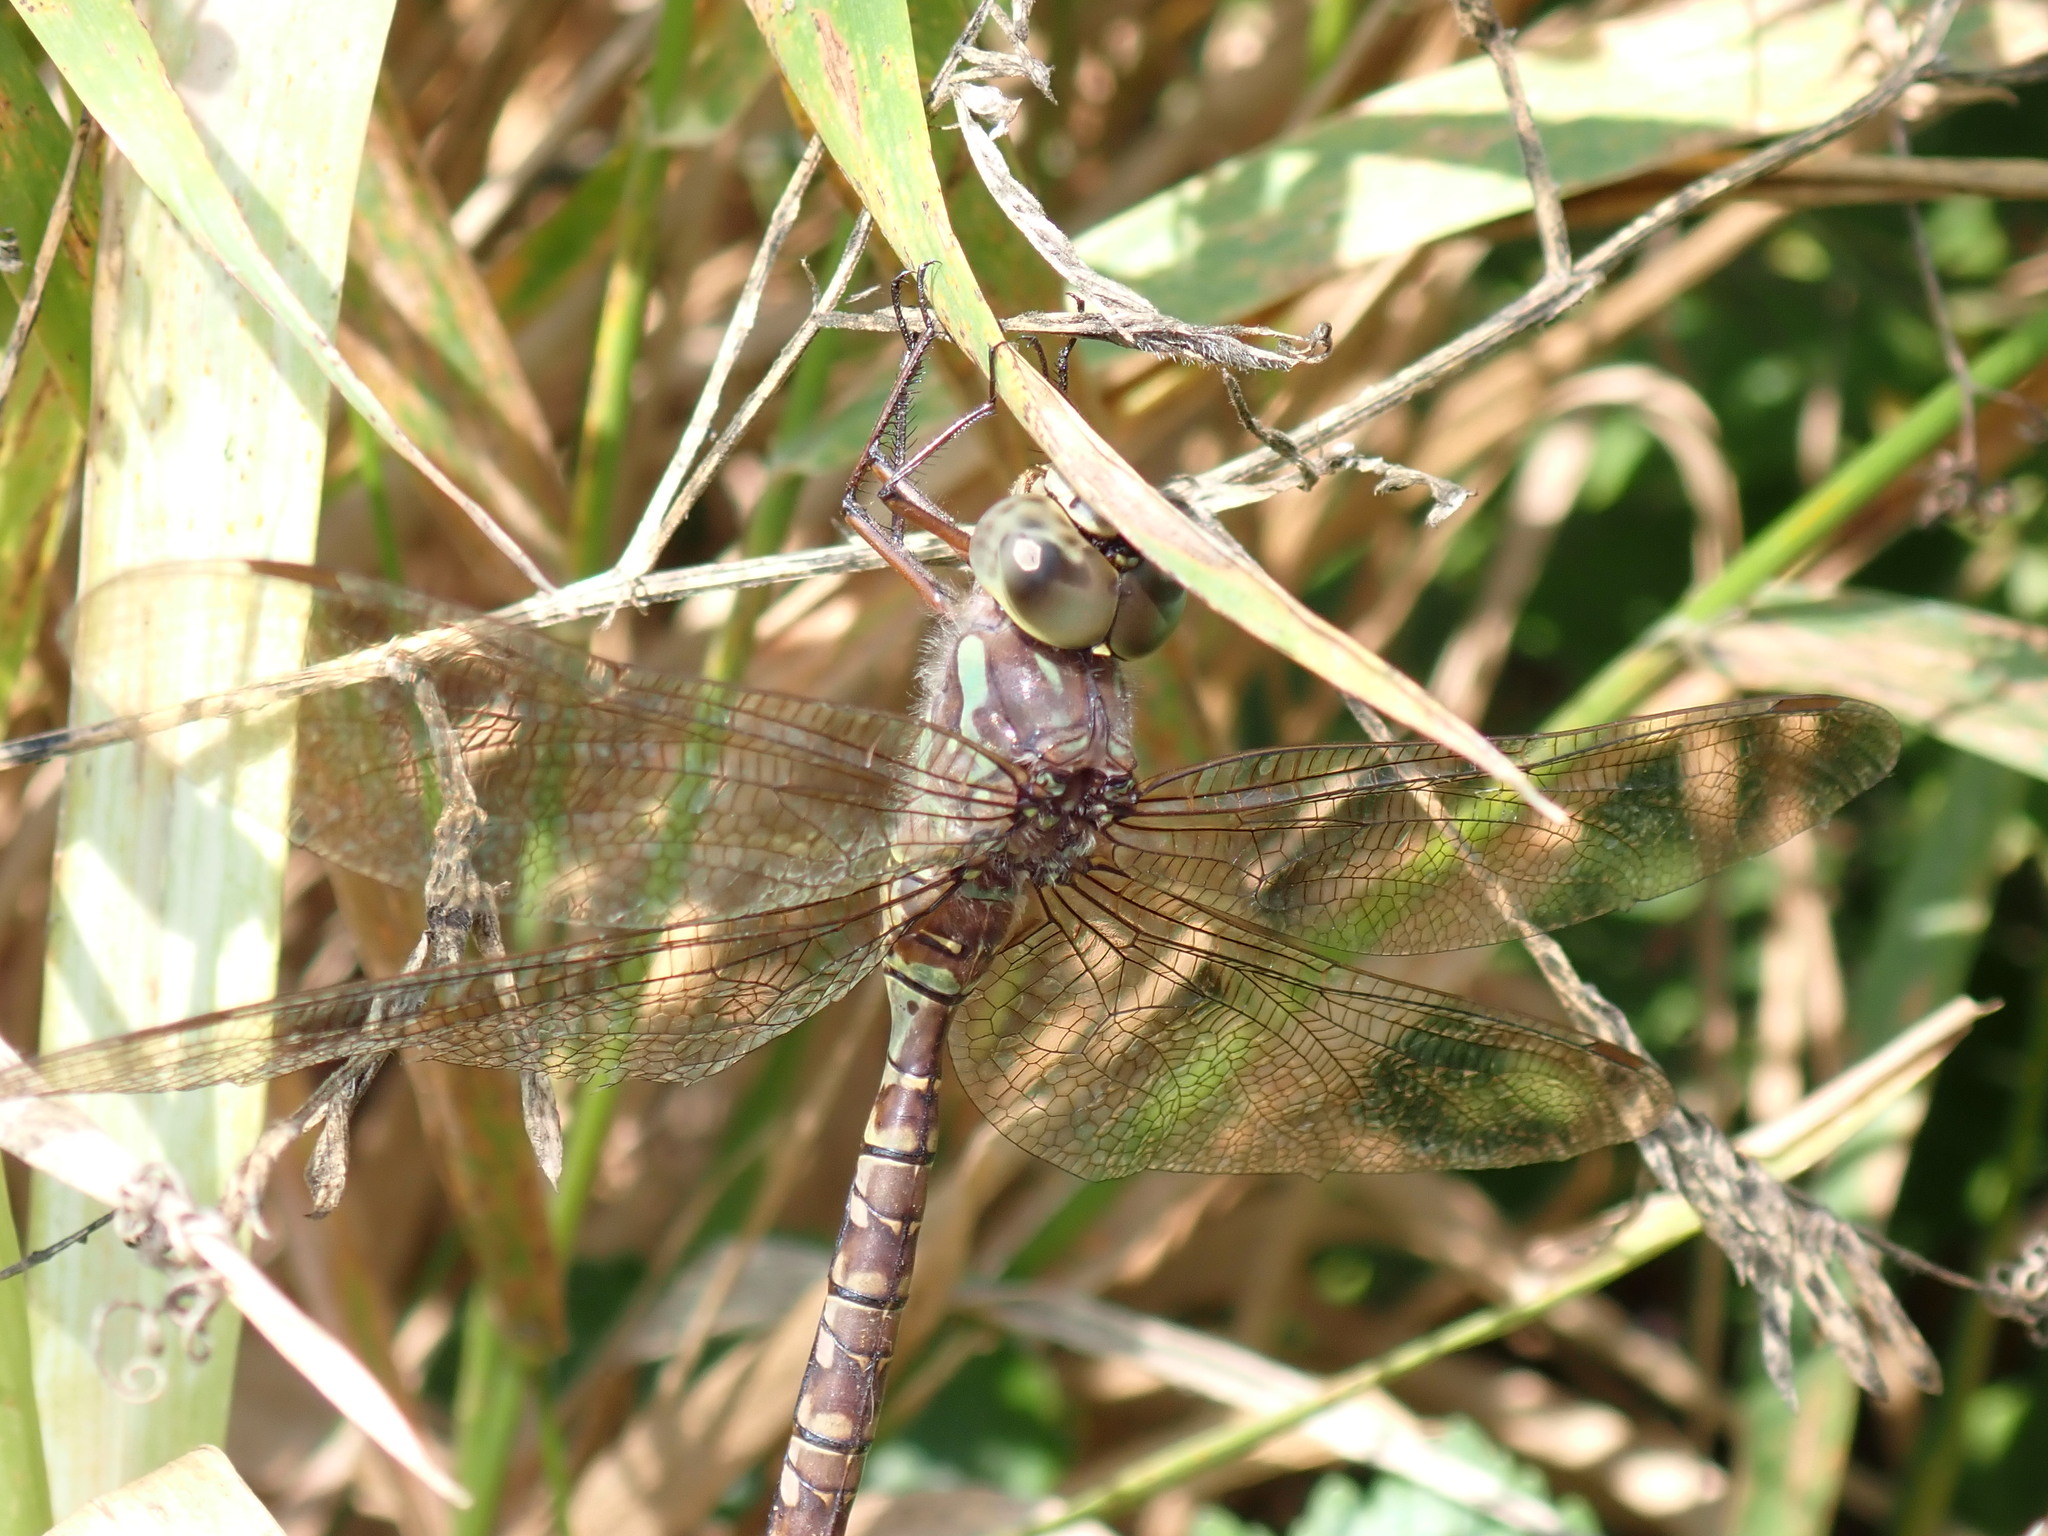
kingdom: Animalia
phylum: Arthropoda
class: Insecta
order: Odonata
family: Aeshnidae
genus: Aeshna
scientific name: Aeshna canadensis
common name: Canada darner
